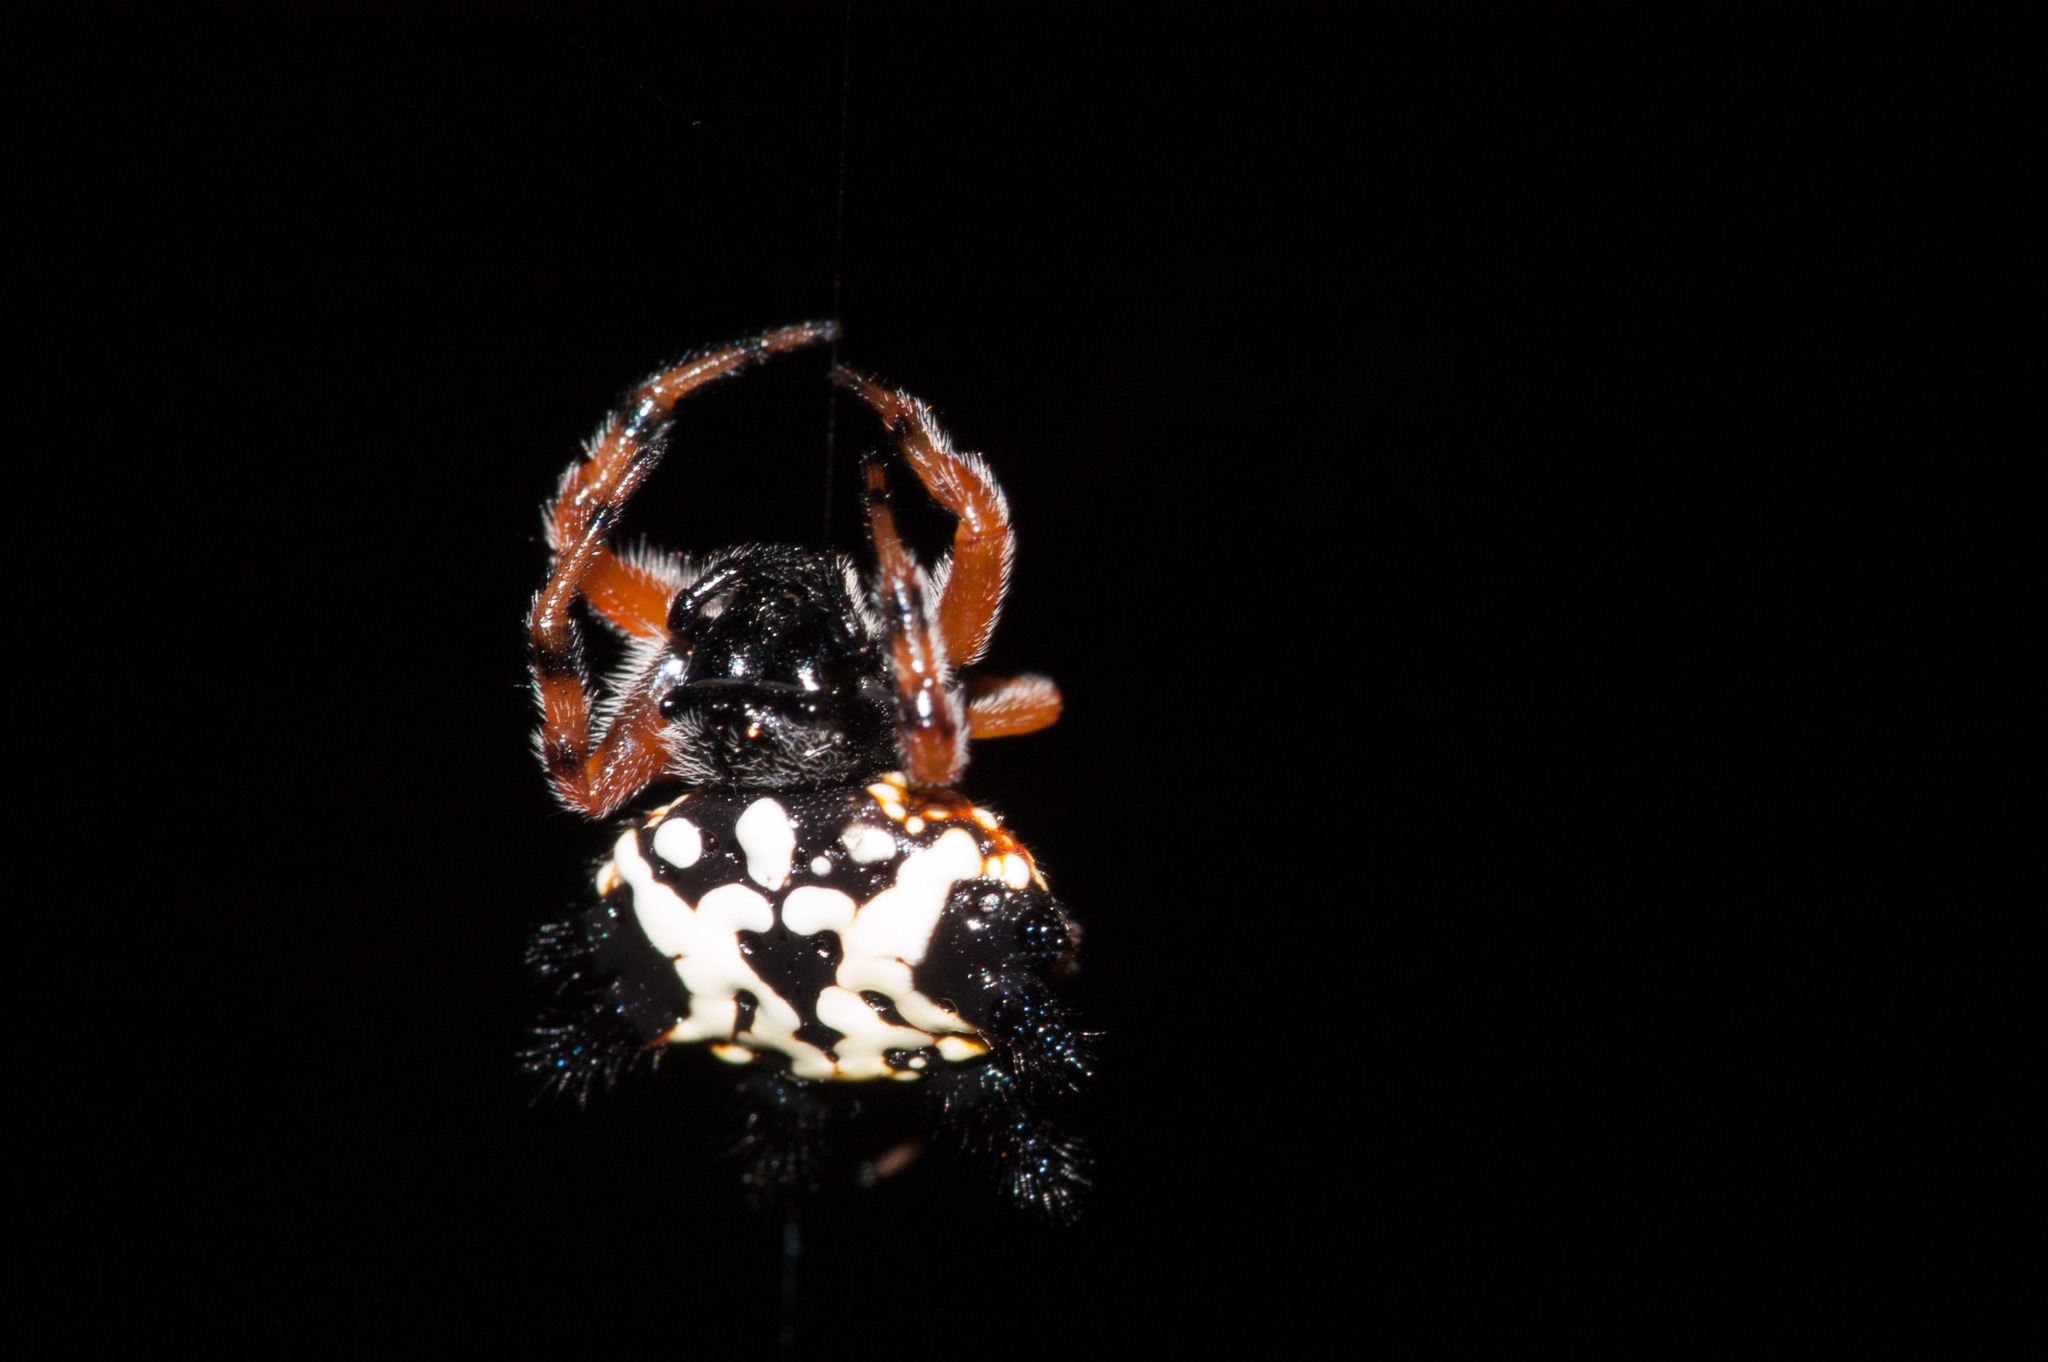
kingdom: Animalia
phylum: Arthropoda
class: Arachnida
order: Araneae
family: Araneidae
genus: Austracantha
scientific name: Austracantha minax
